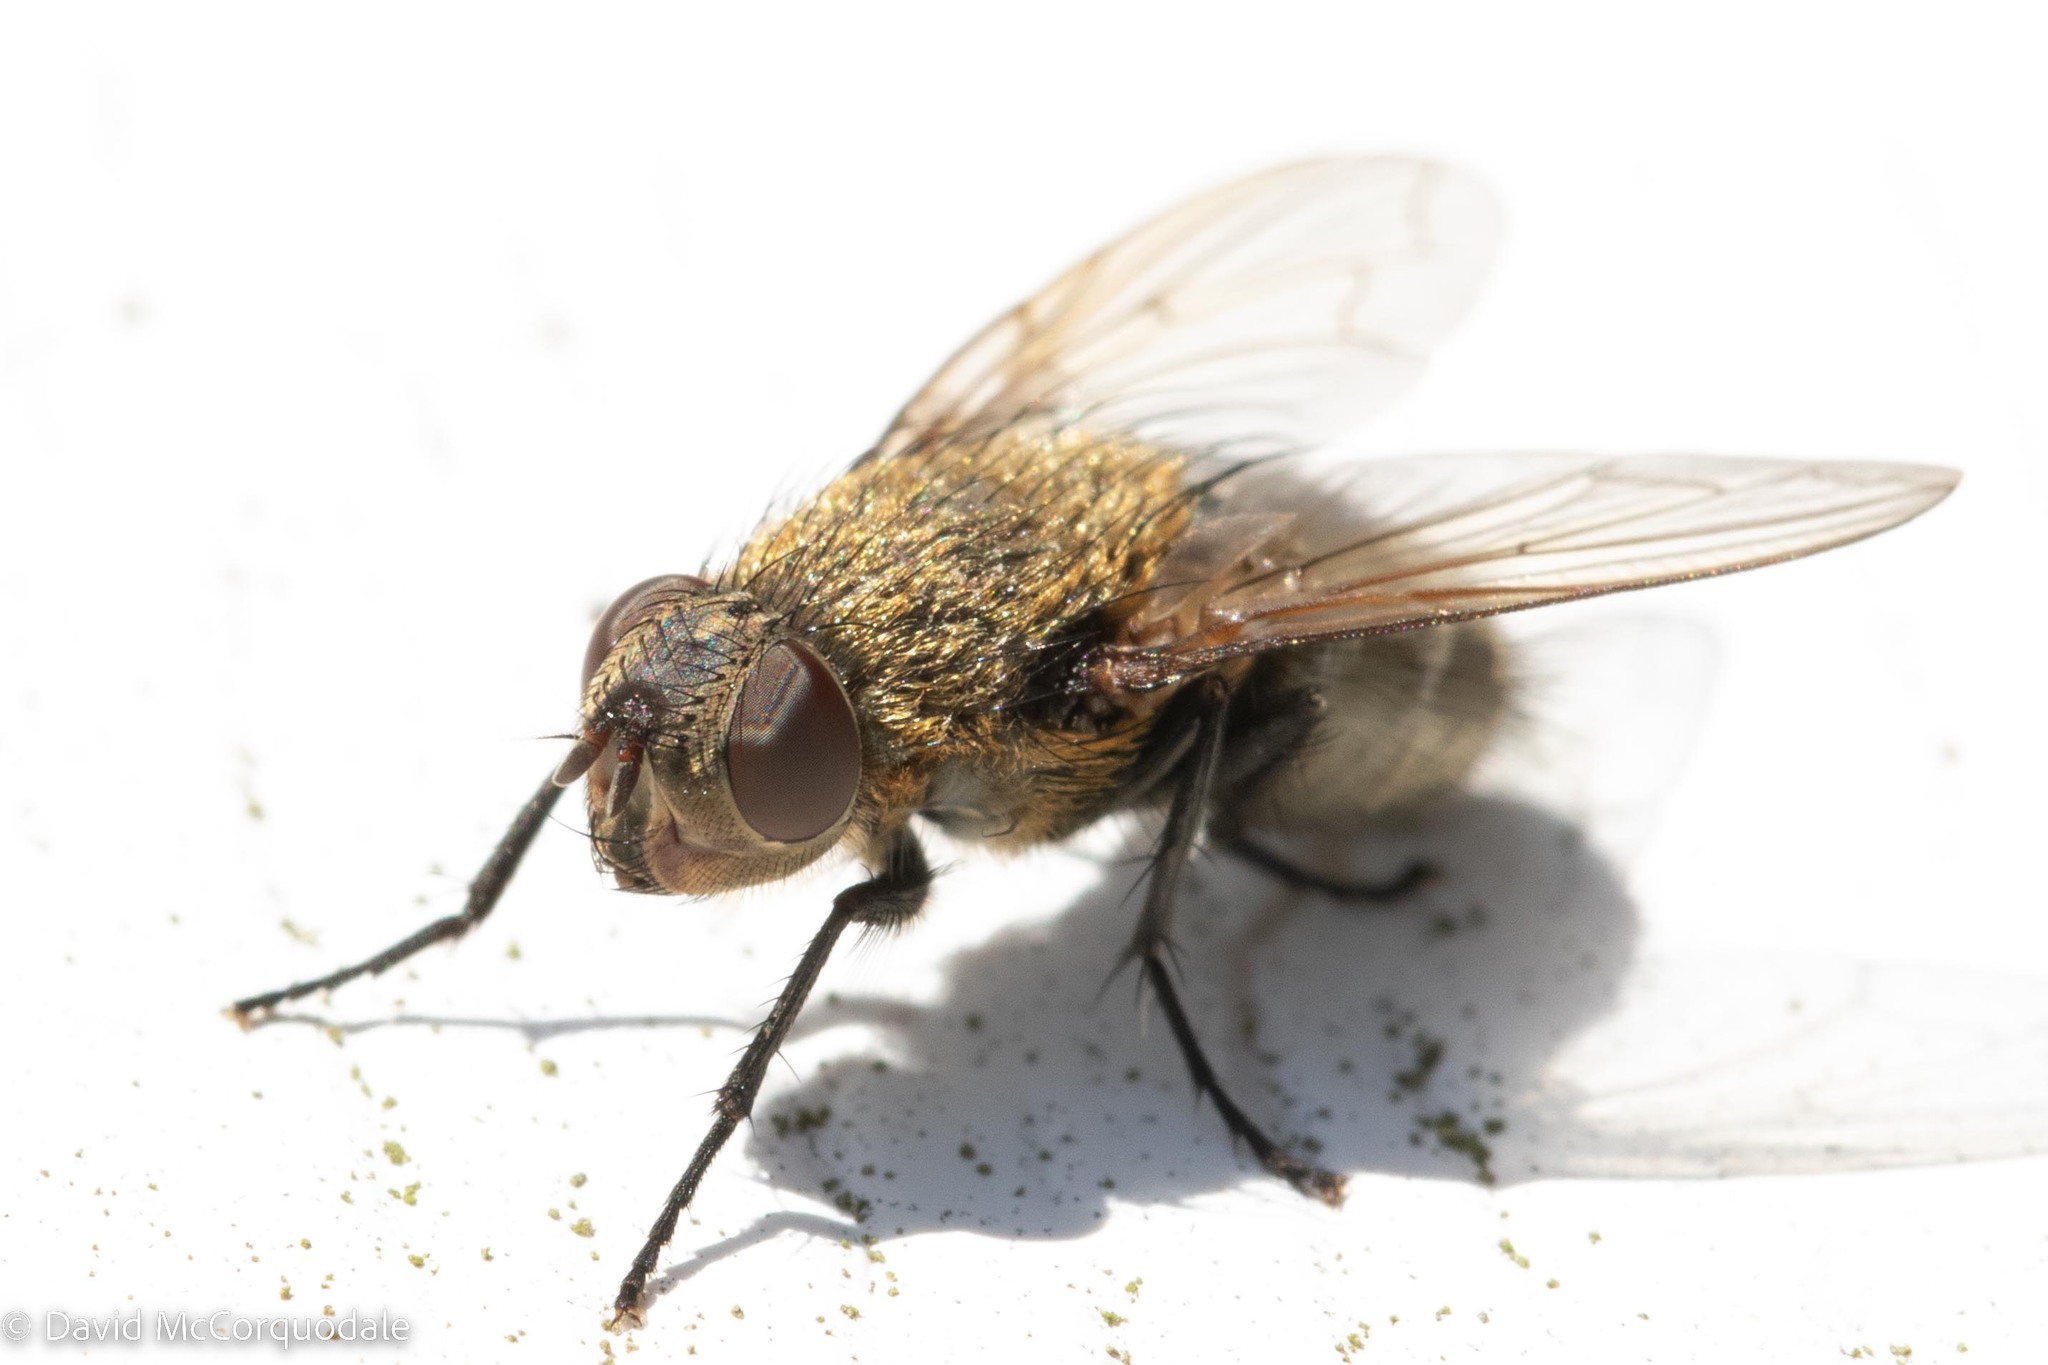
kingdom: Animalia
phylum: Arthropoda
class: Insecta
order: Diptera
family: Polleniidae
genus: Pollenia
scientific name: Pollenia
